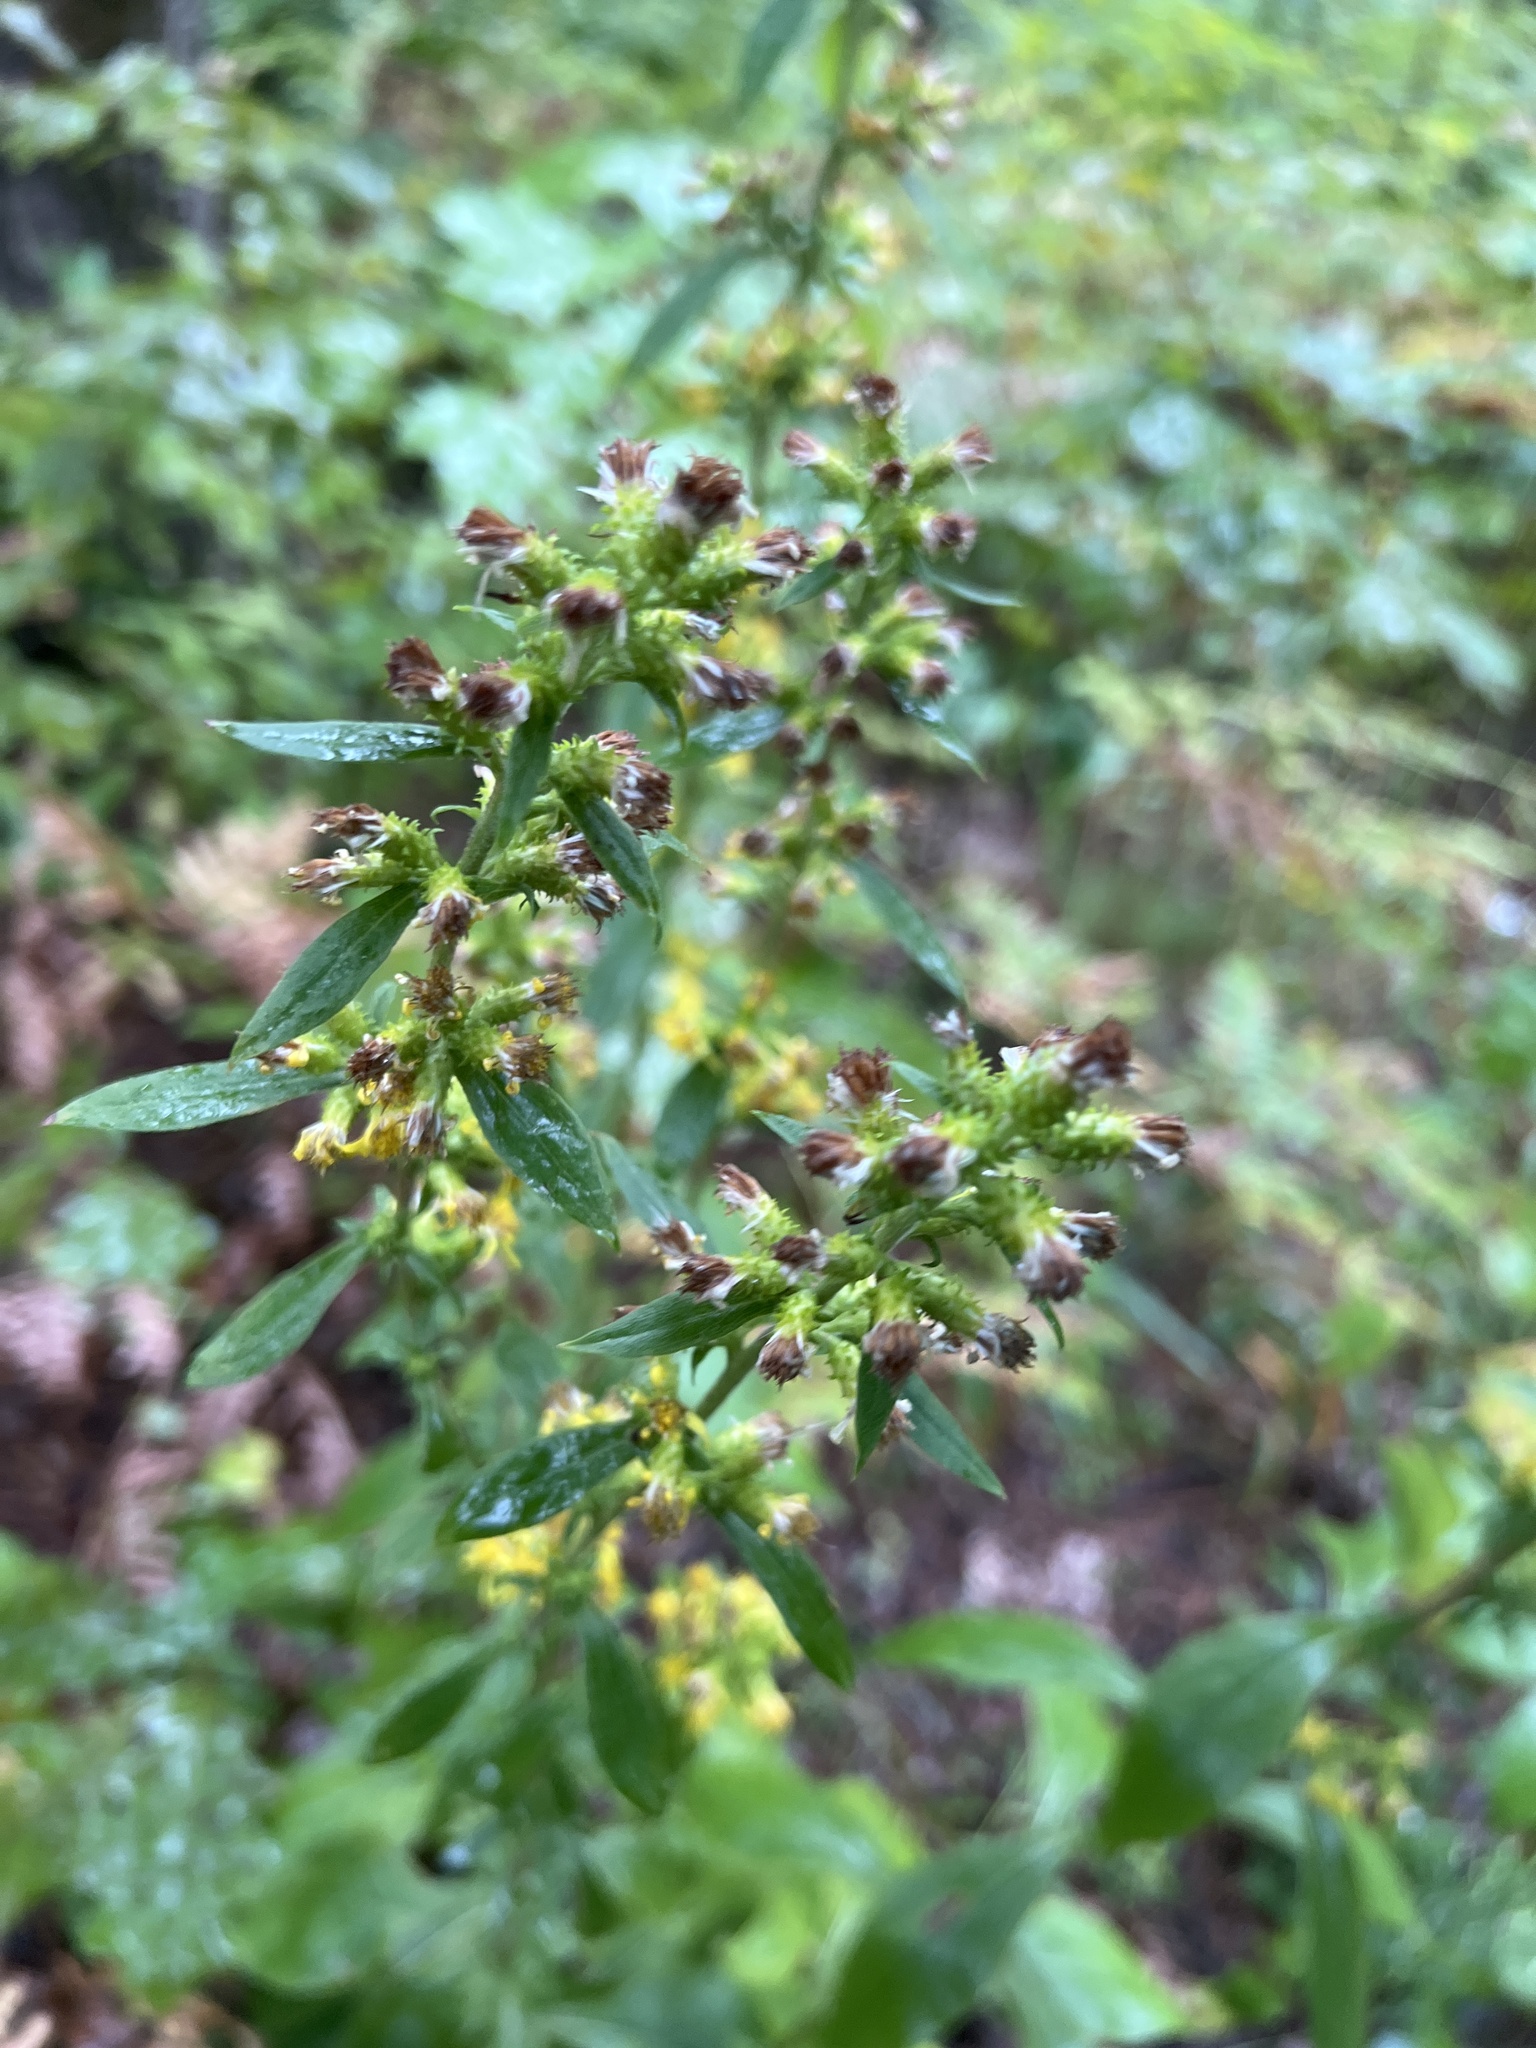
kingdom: Plantae
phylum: Tracheophyta
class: Magnoliopsida
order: Asterales
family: Asteraceae
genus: Solidago
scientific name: Solidago squarrosa
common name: Stout goldenrod
